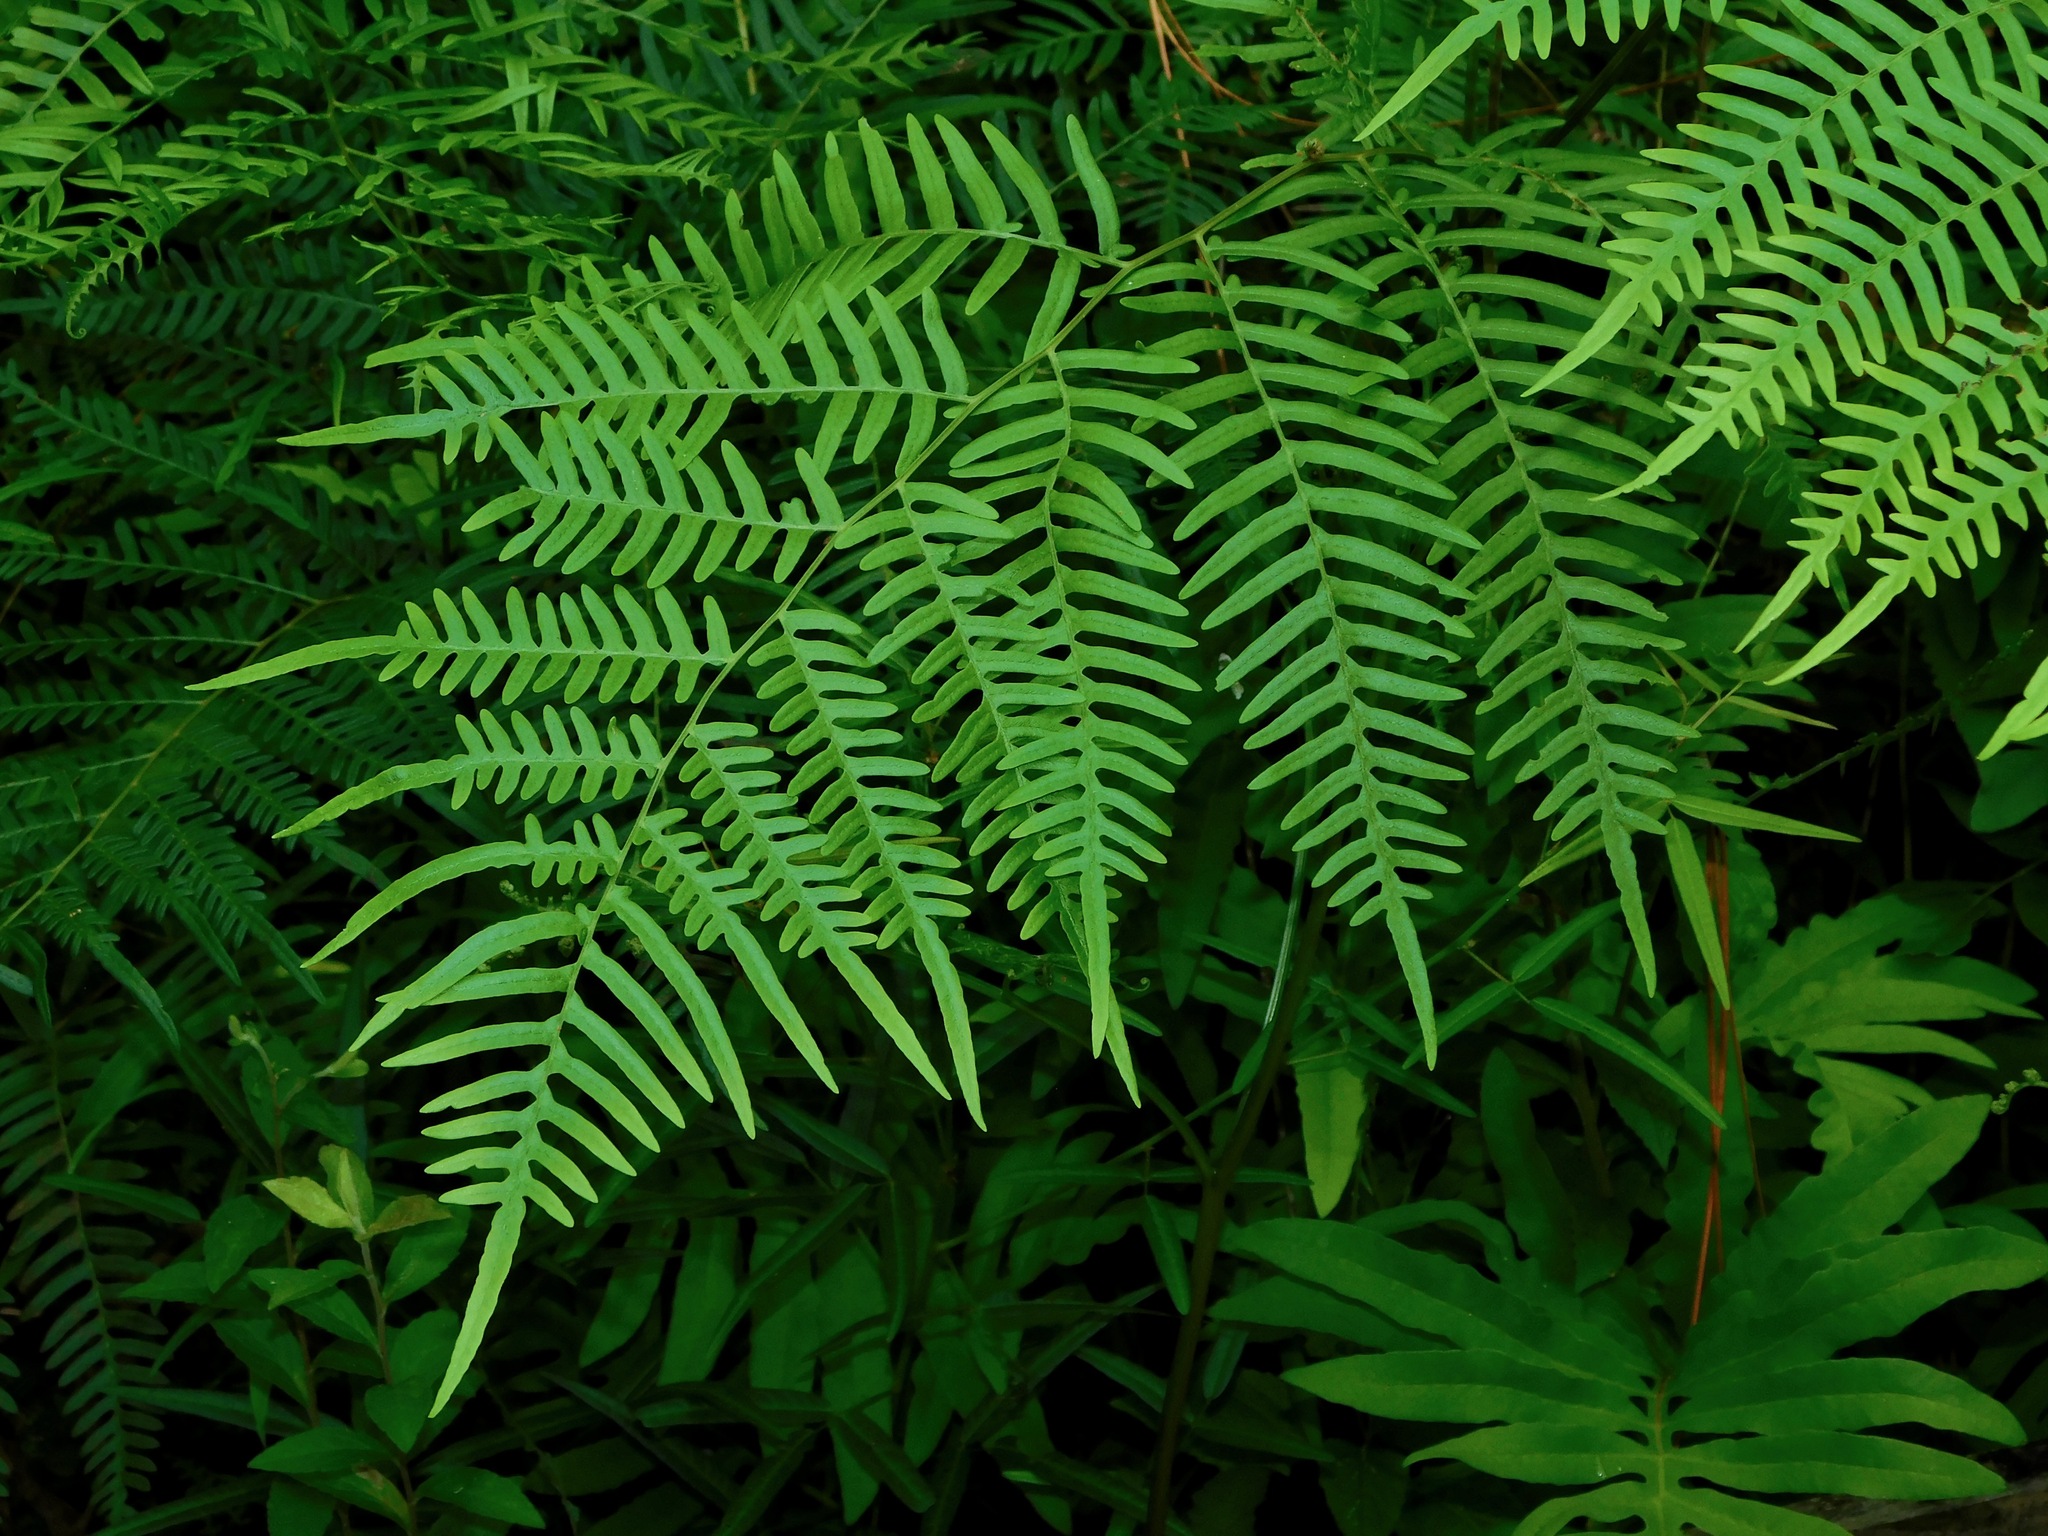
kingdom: Plantae
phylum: Tracheophyta
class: Polypodiopsida
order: Polypodiales
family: Dennstaedtiaceae
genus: Pteridium
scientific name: Pteridium
